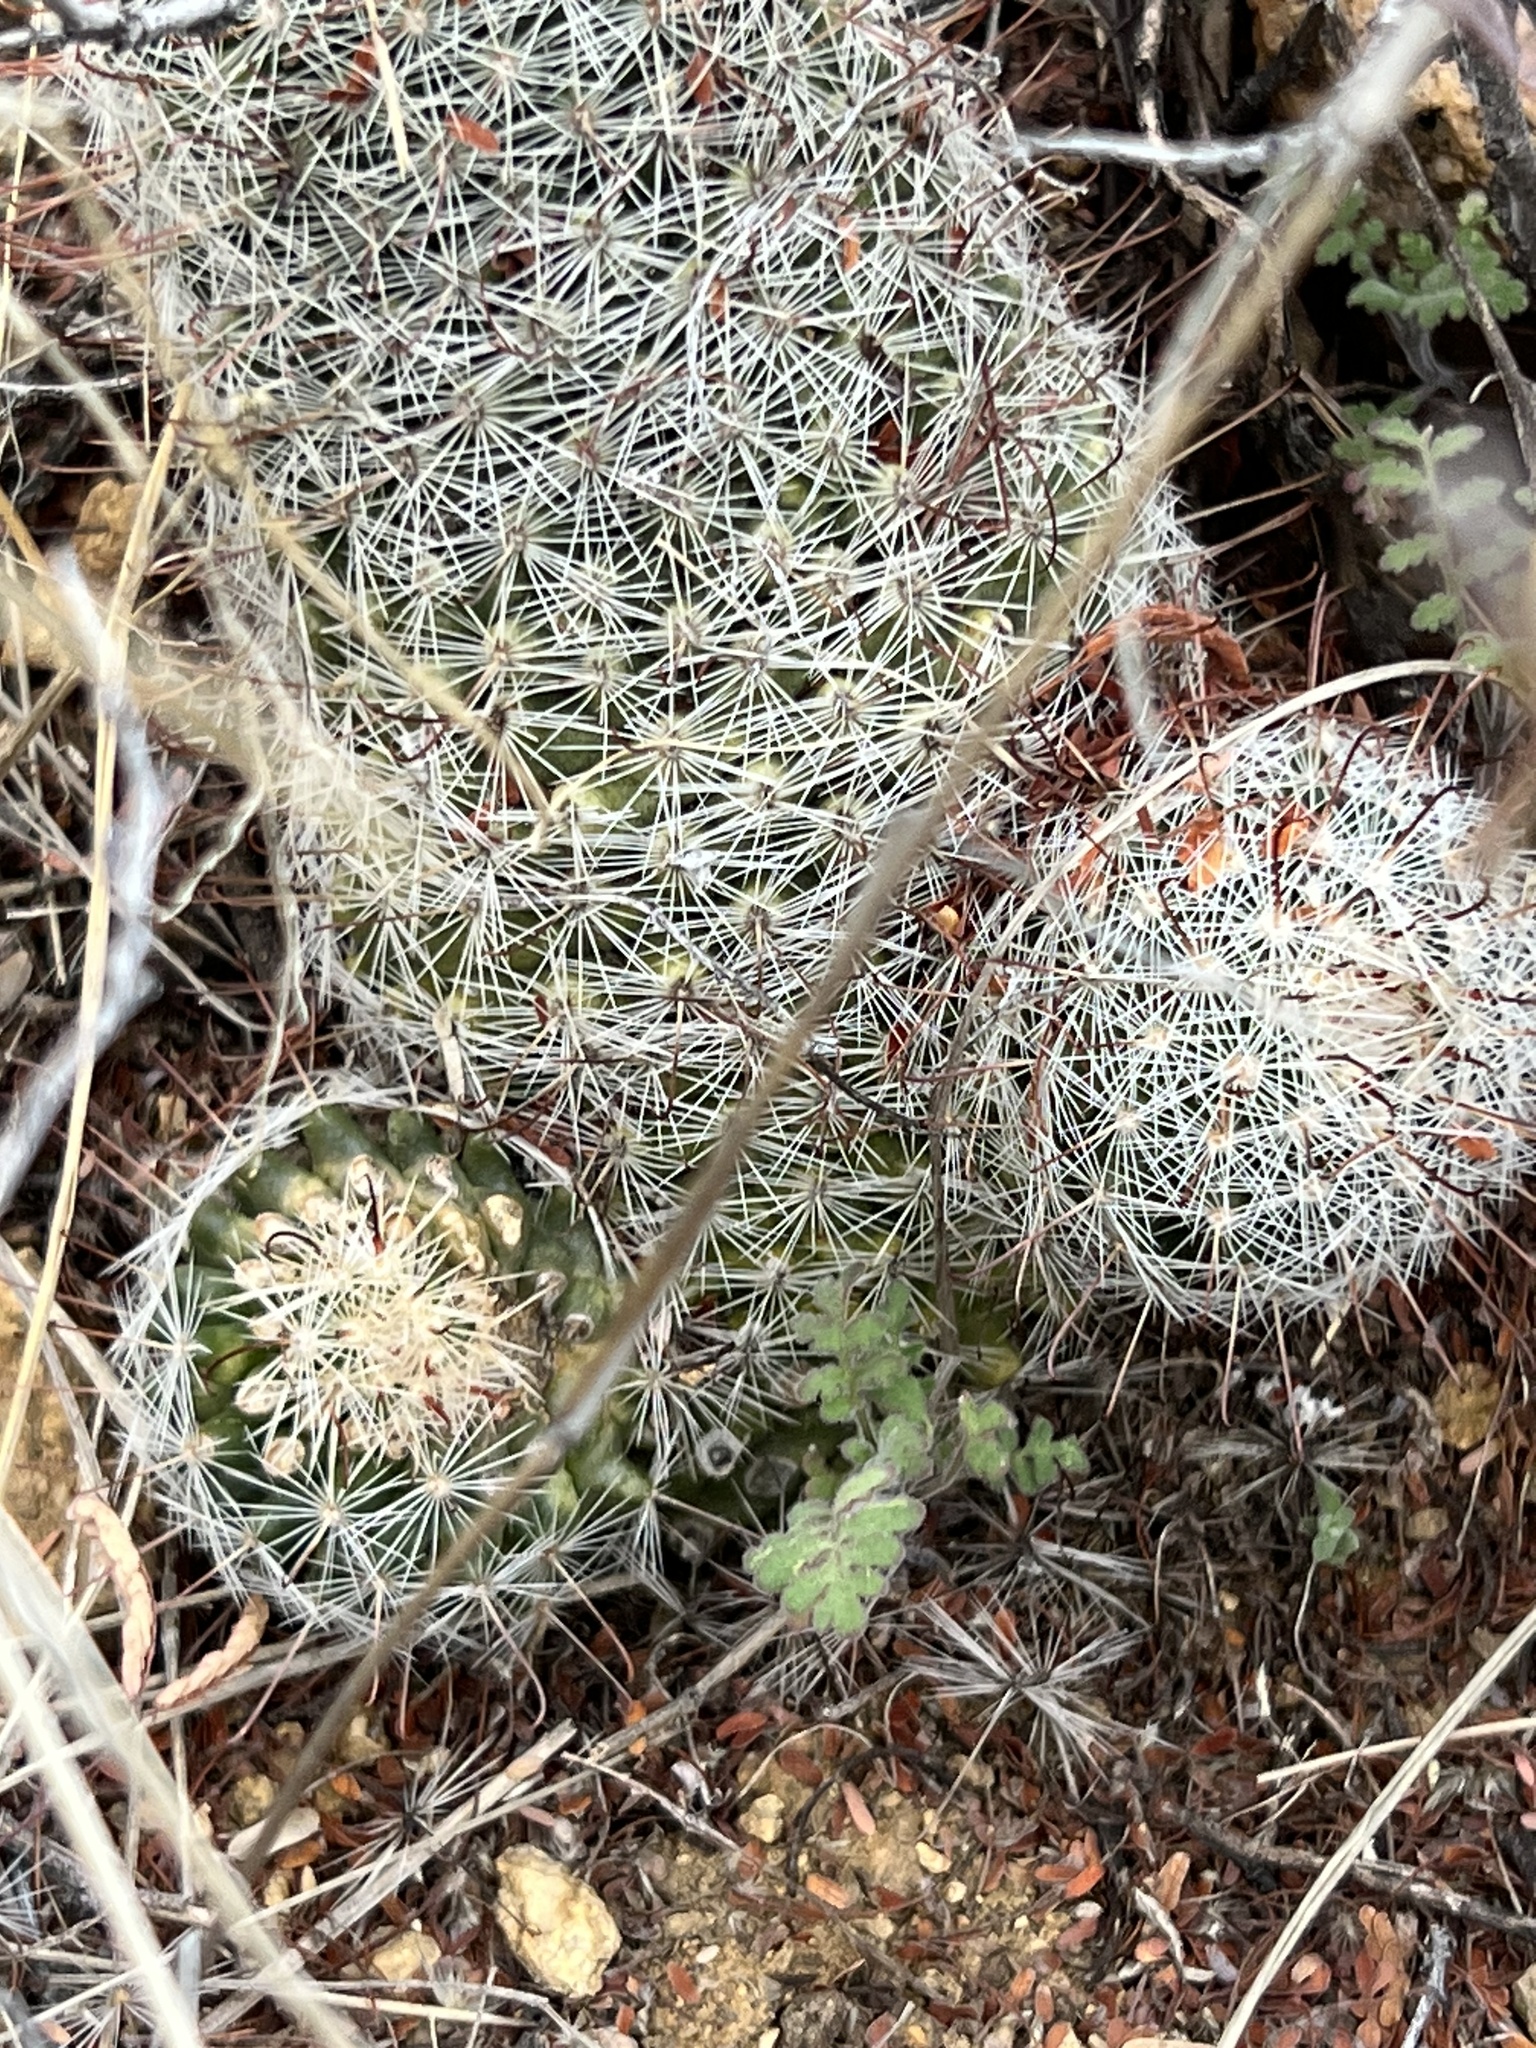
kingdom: Plantae
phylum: Tracheophyta
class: Magnoliopsida
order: Caryophyllales
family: Cactaceae
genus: Cochemiea
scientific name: Cochemiea grahamii
